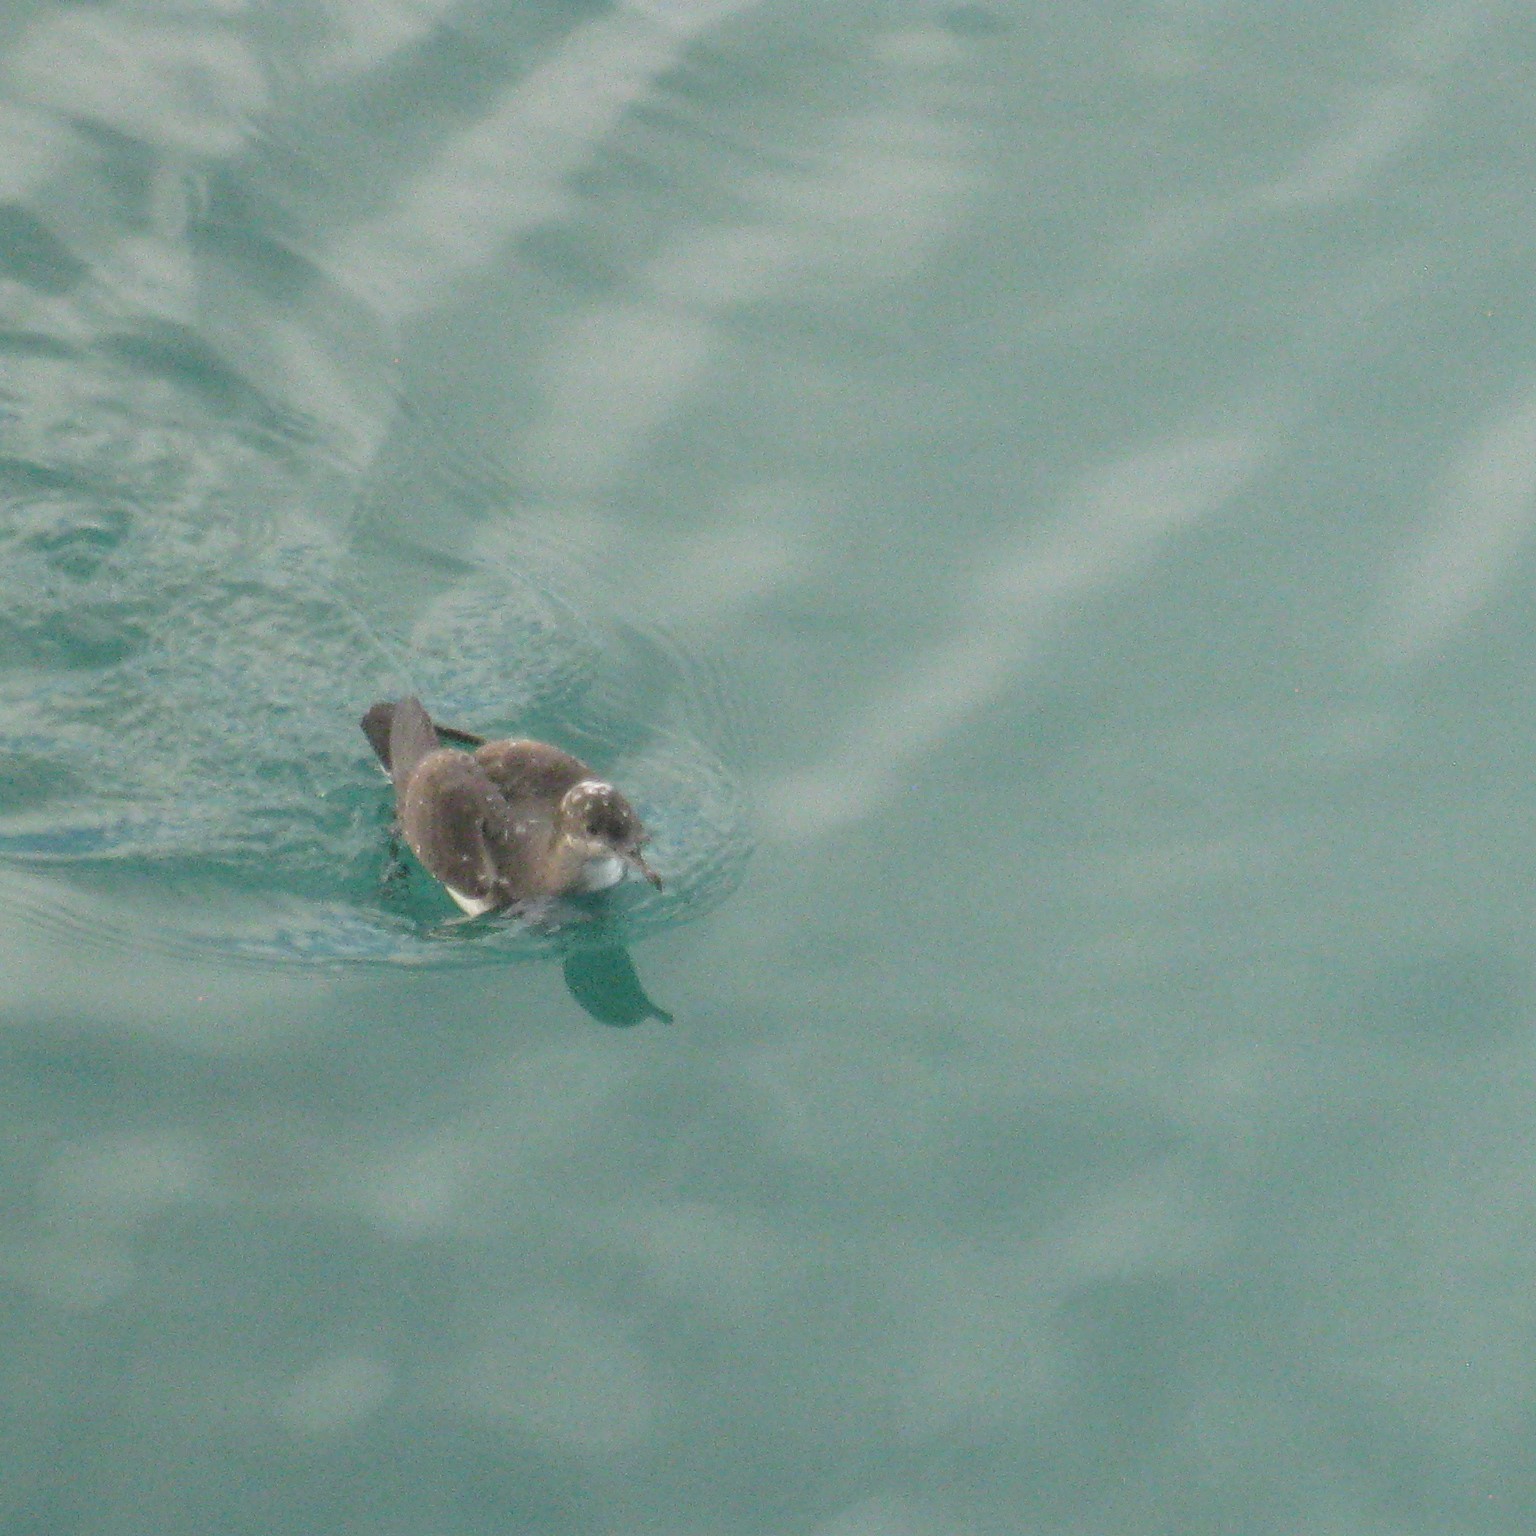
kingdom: Animalia
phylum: Chordata
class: Aves
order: Procellariiformes
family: Procellariidae
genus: Puffinus
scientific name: Puffinus gavia
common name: Fluttering shearwater
